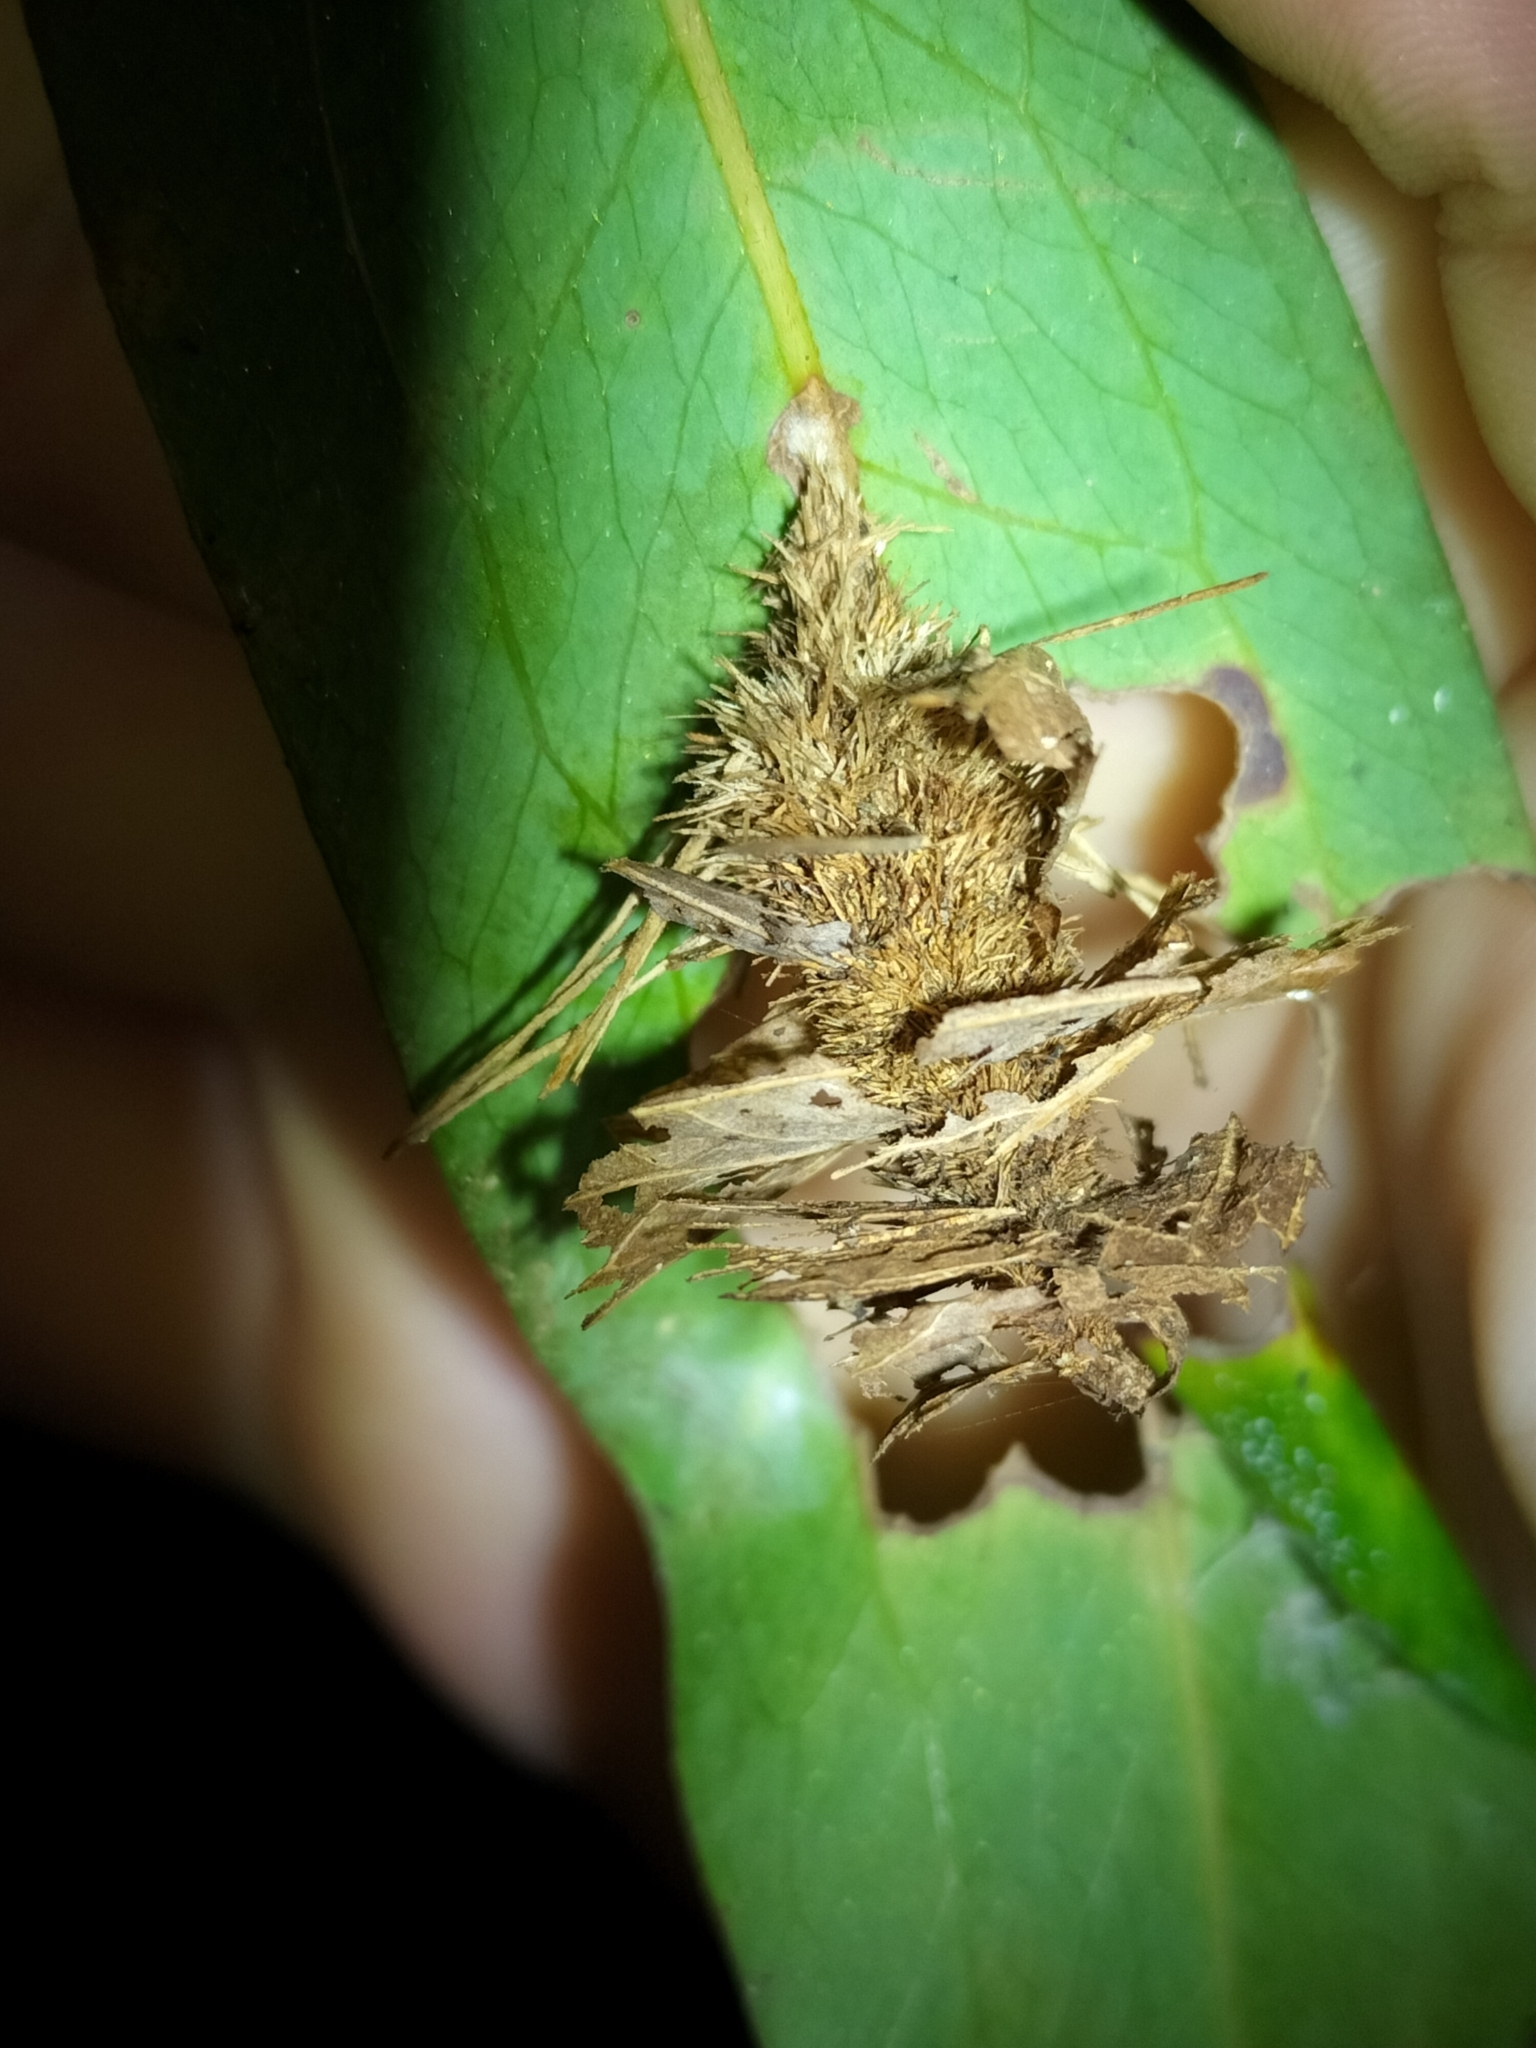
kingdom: Animalia
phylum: Arthropoda
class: Insecta
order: Lepidoptera
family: Psychidae
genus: Metura
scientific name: Metura aristocosma
